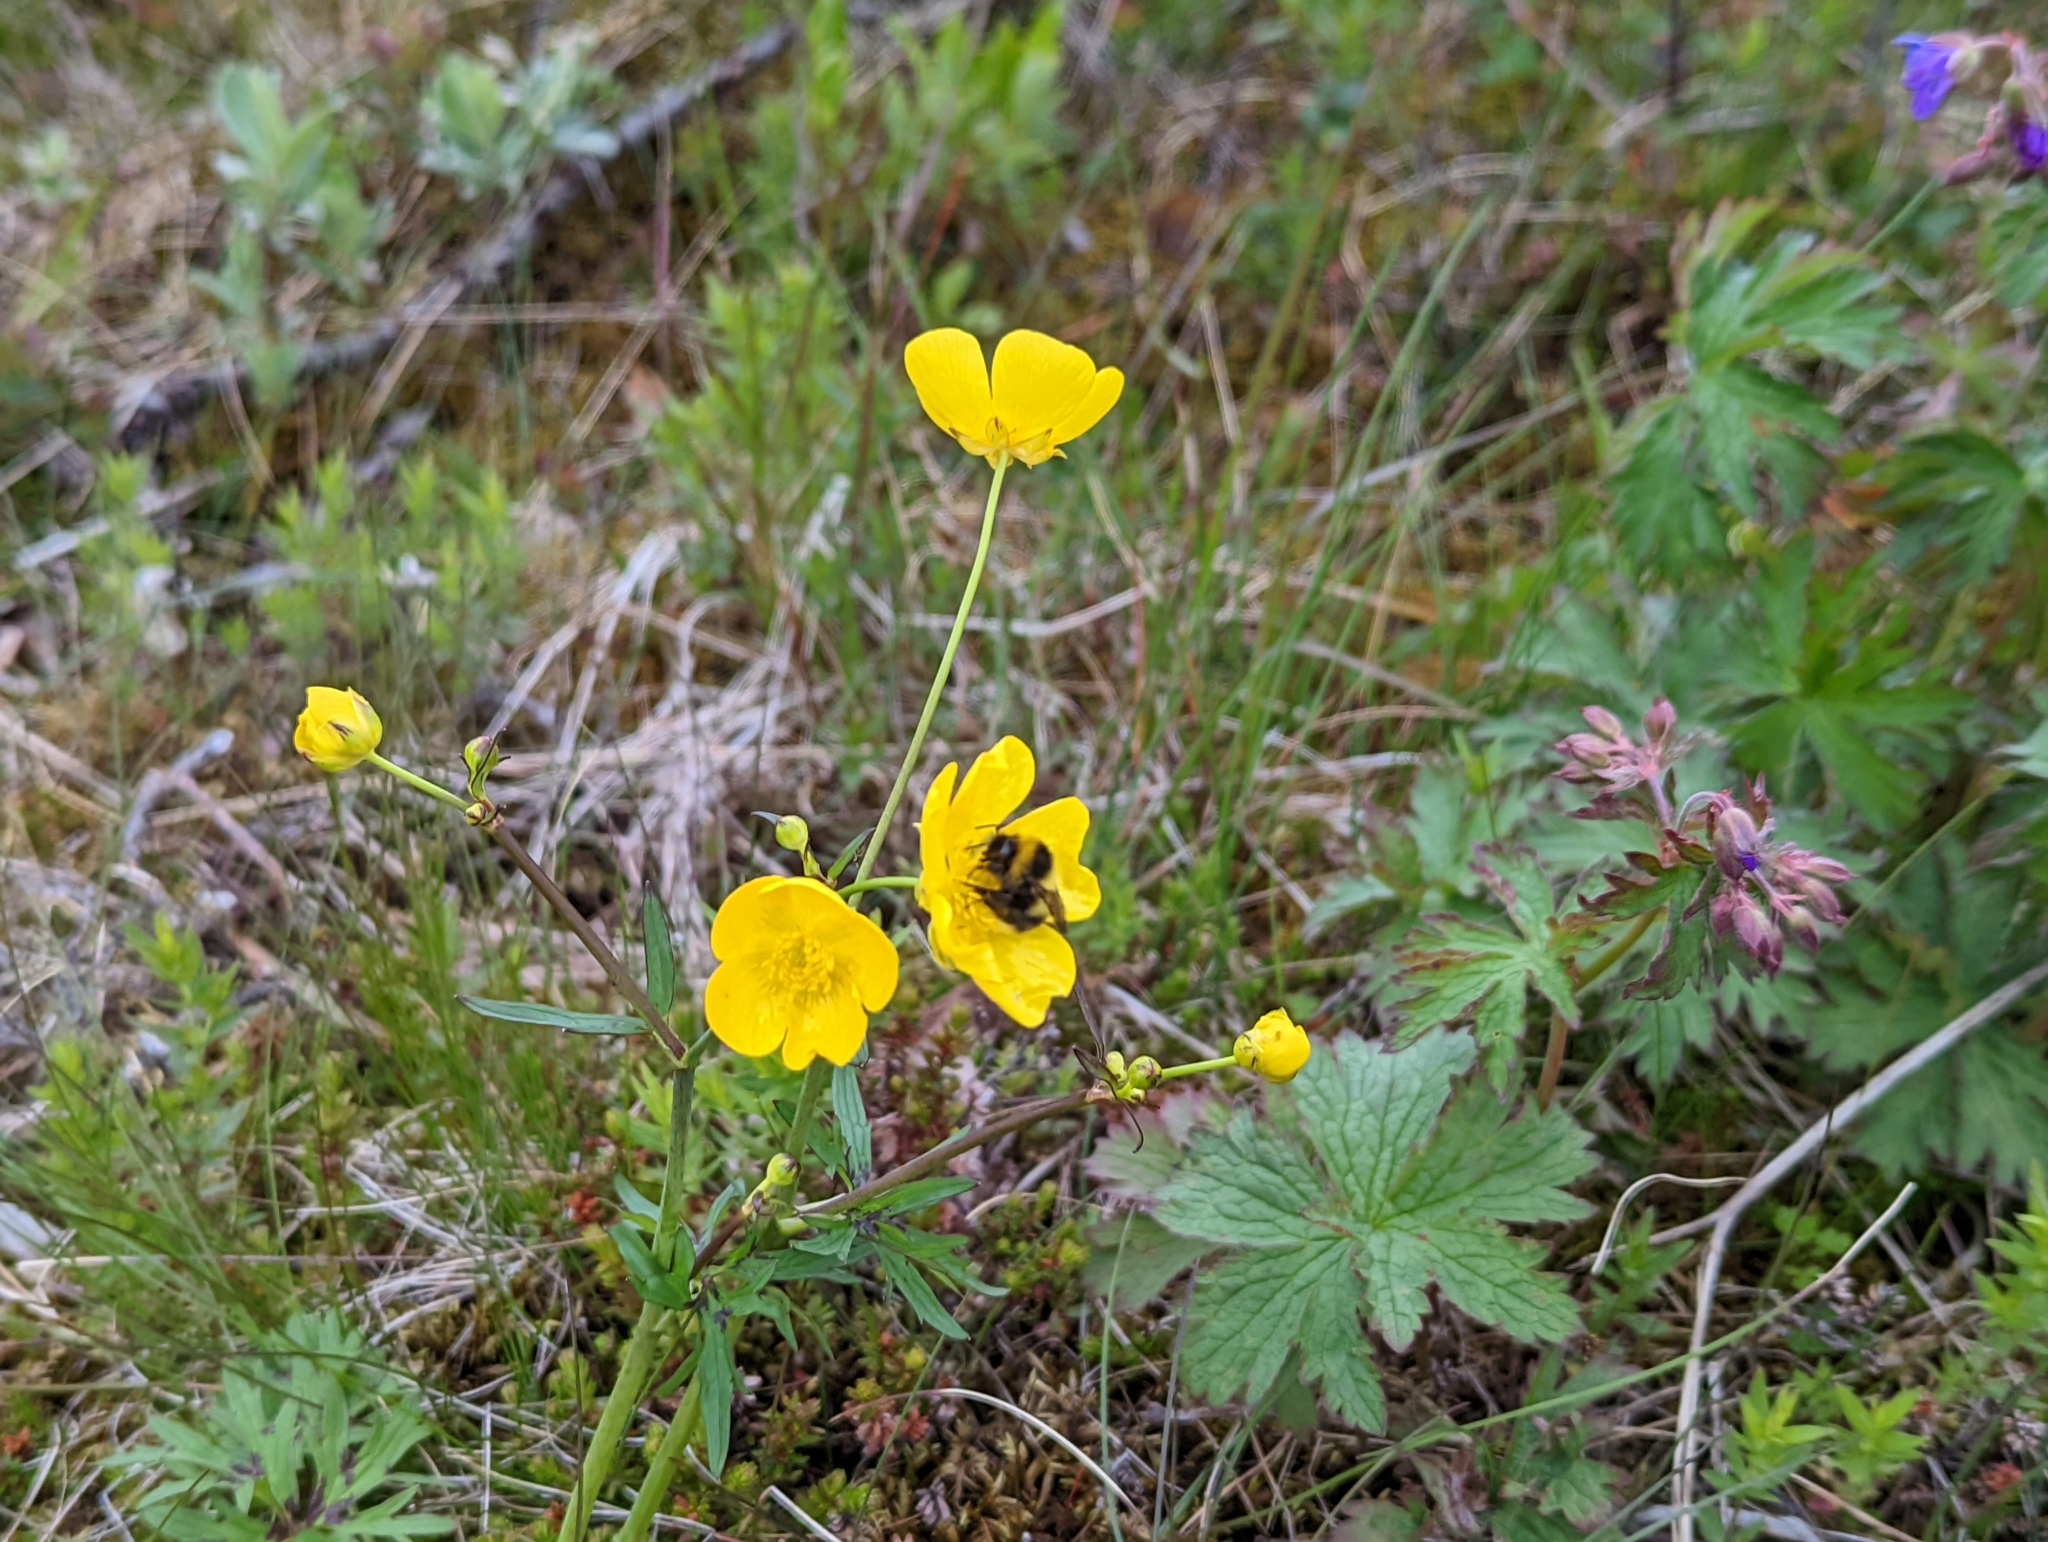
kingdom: Animalia
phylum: Arthropoda
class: Insecta
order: Hymenoptera
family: Apidae
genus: Bombus
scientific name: Bombus
